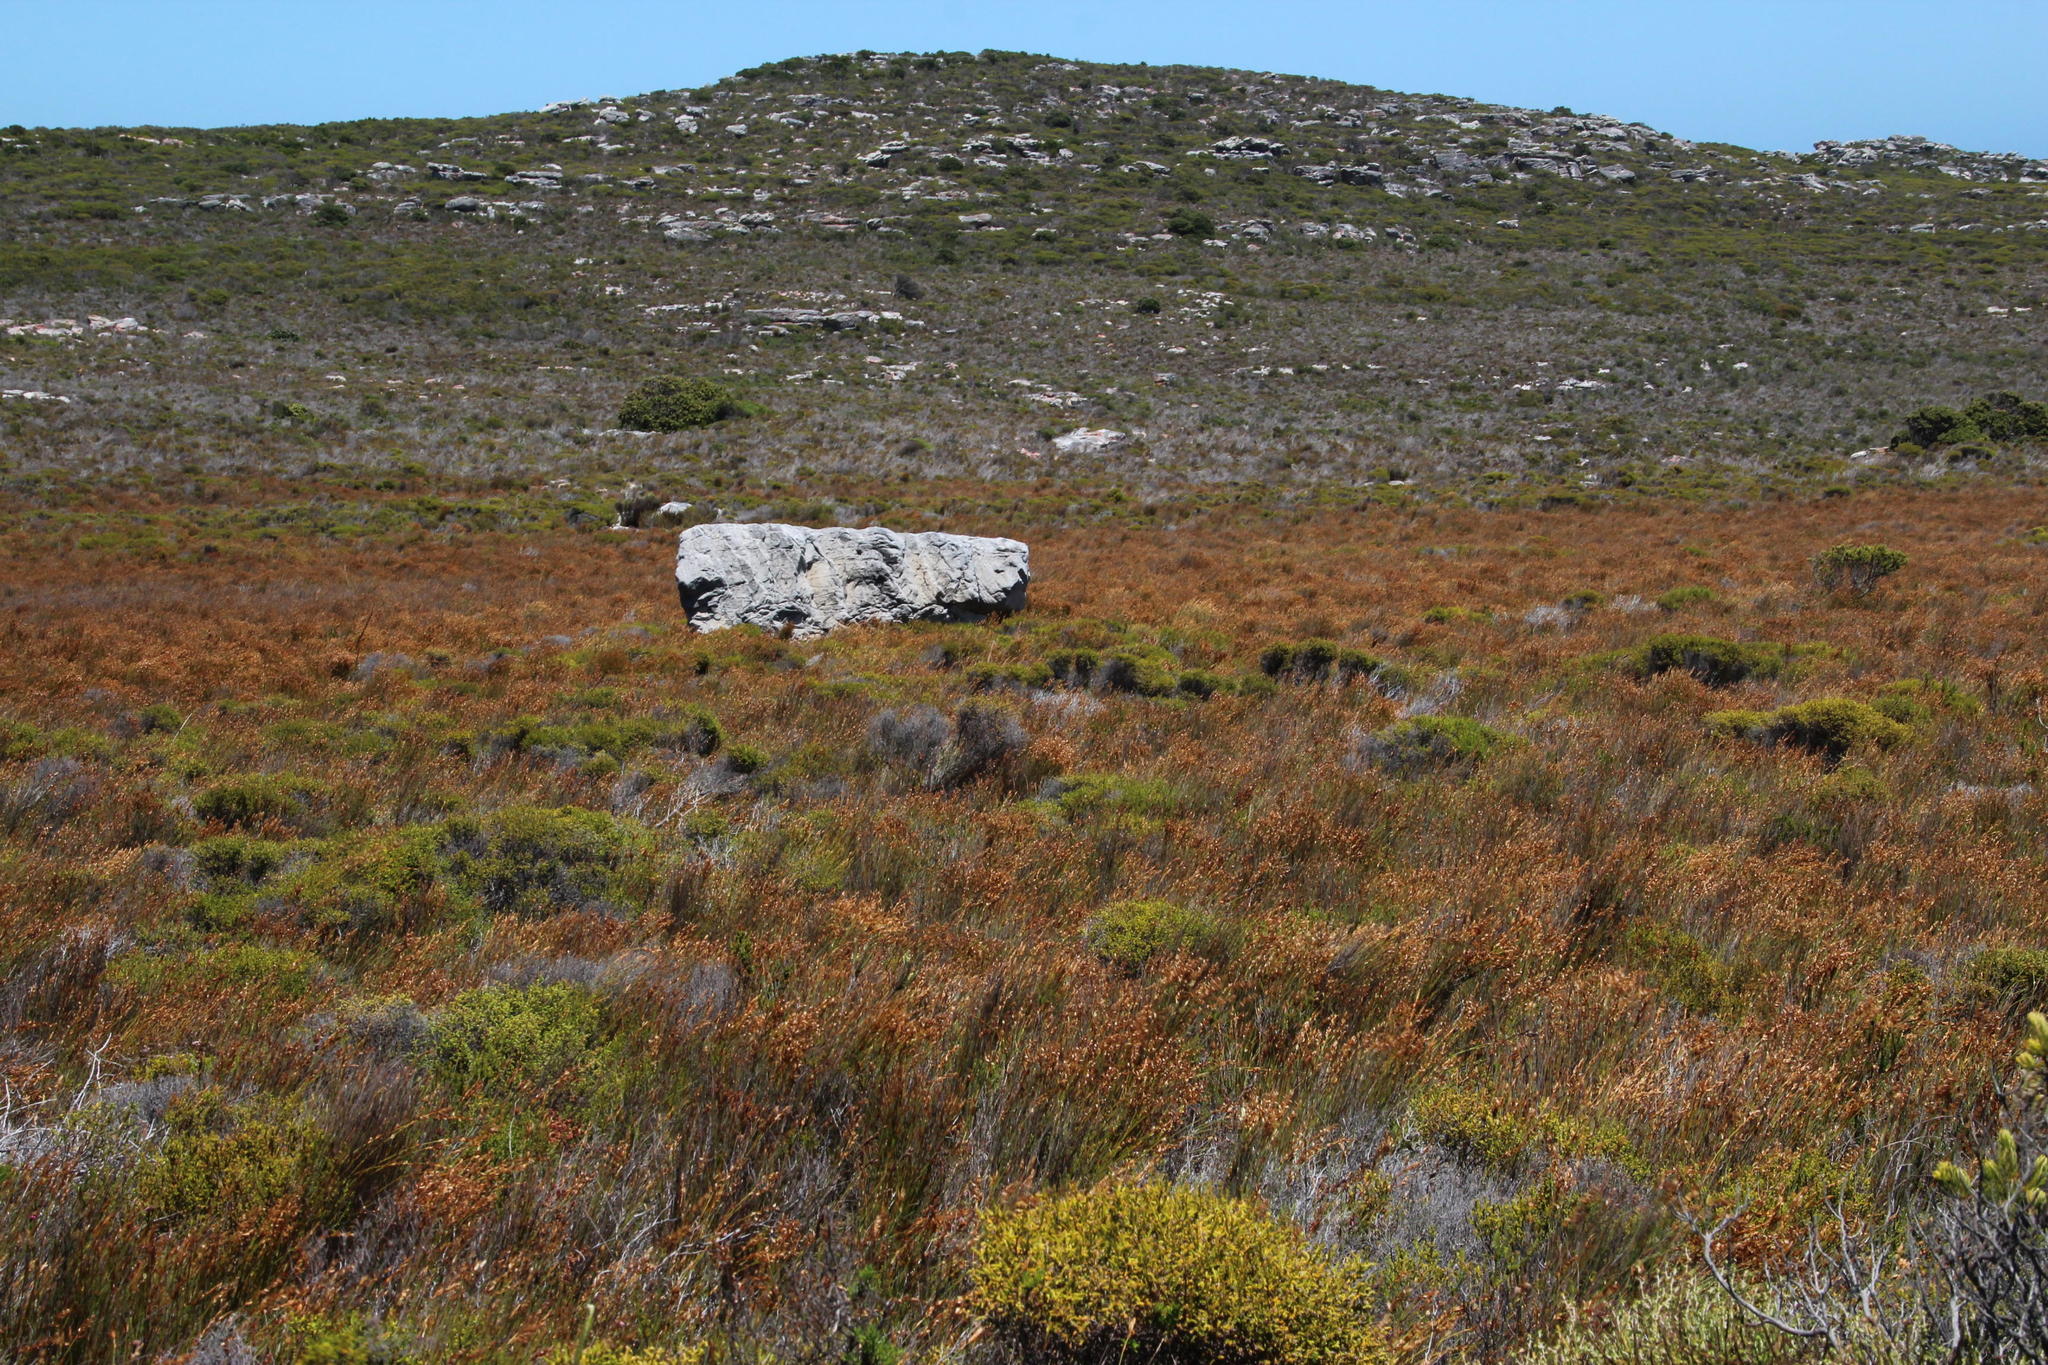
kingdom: Plantae
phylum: Tracheophyta
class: Liliopsida
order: Poales
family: Restionaceae
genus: Elegia
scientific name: Elegia filacea
